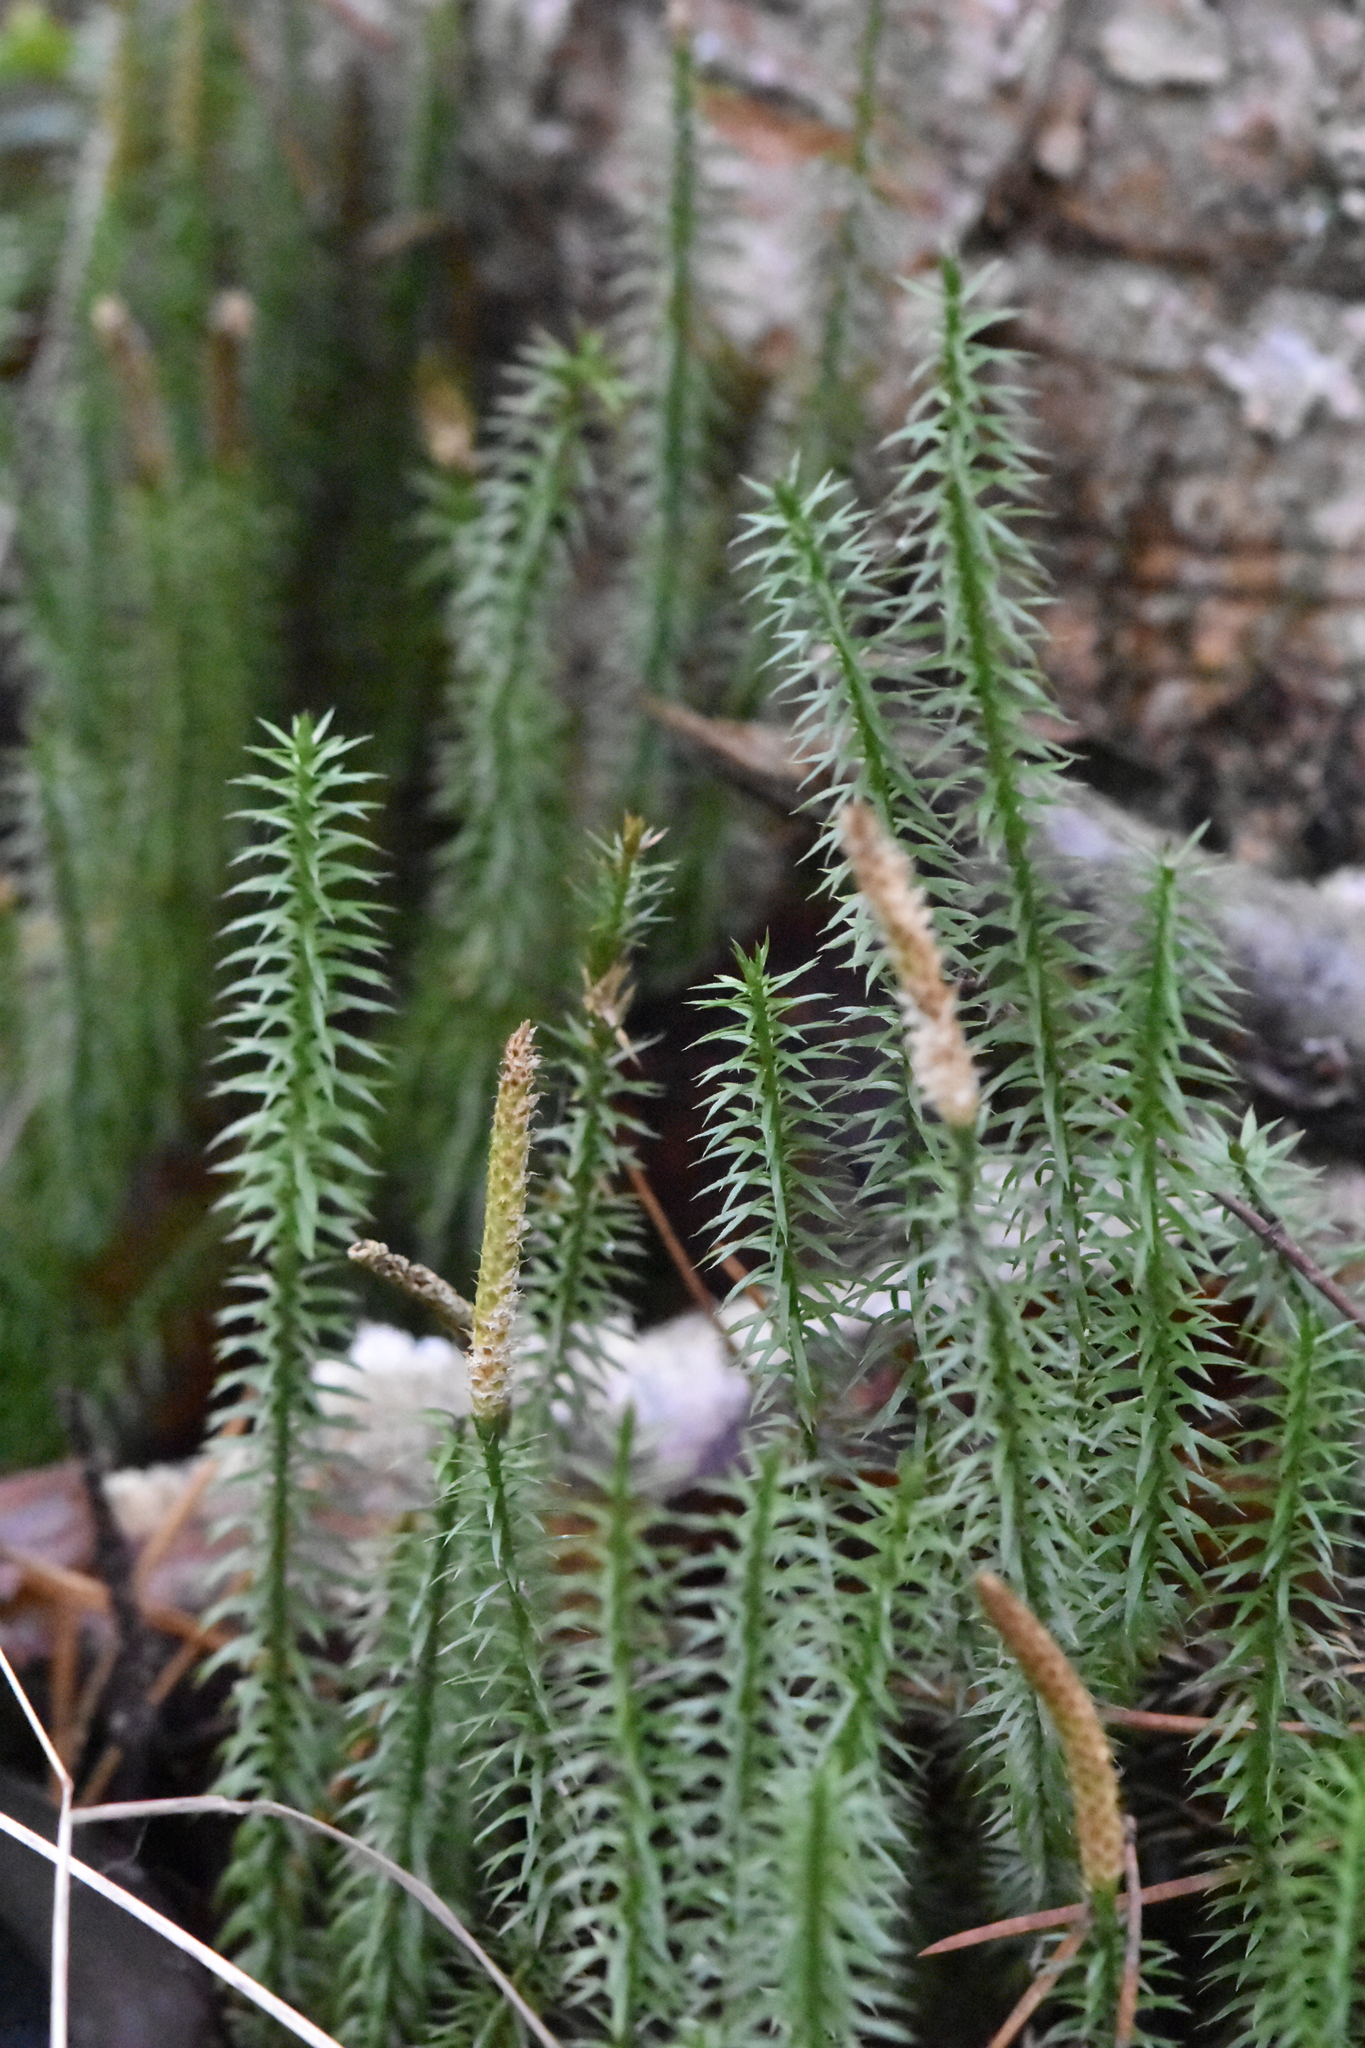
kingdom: Plantae
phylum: Tracheophyta
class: Lycopodiopsida
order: Lycopodiales
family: Lycopodiaceae
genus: Spinulum
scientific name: Spinulum annotinum
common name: Interrupted club-moss
